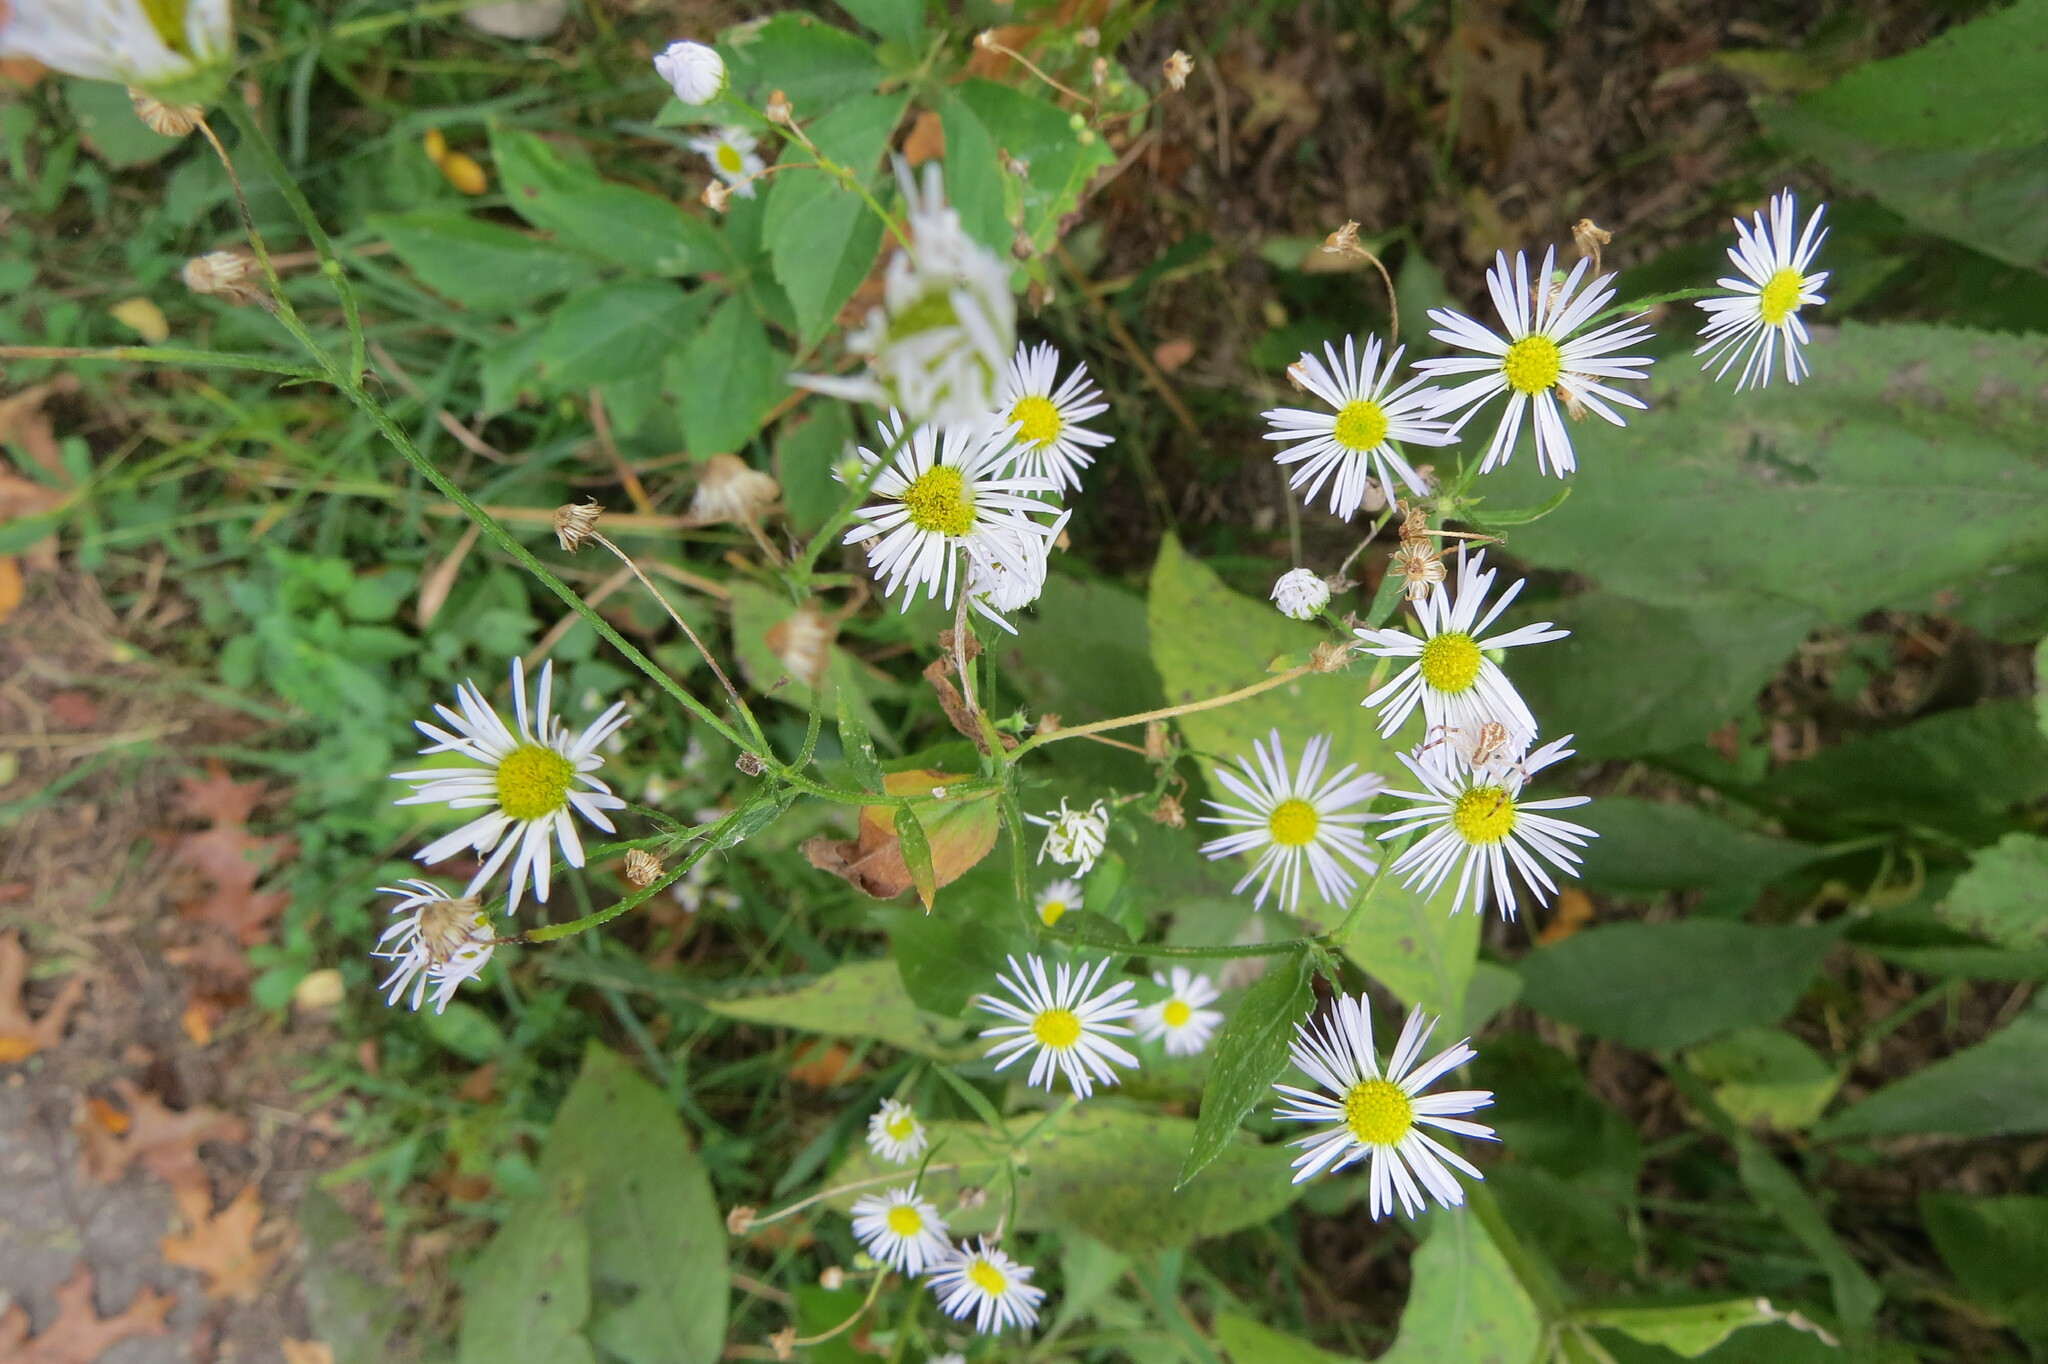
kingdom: Plantae
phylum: Tracheophyta
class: Magnoliopsida
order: Asterales
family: Asteraceae
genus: Erigeron
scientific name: Erigeron strigosus
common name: Common eastern fleabane
